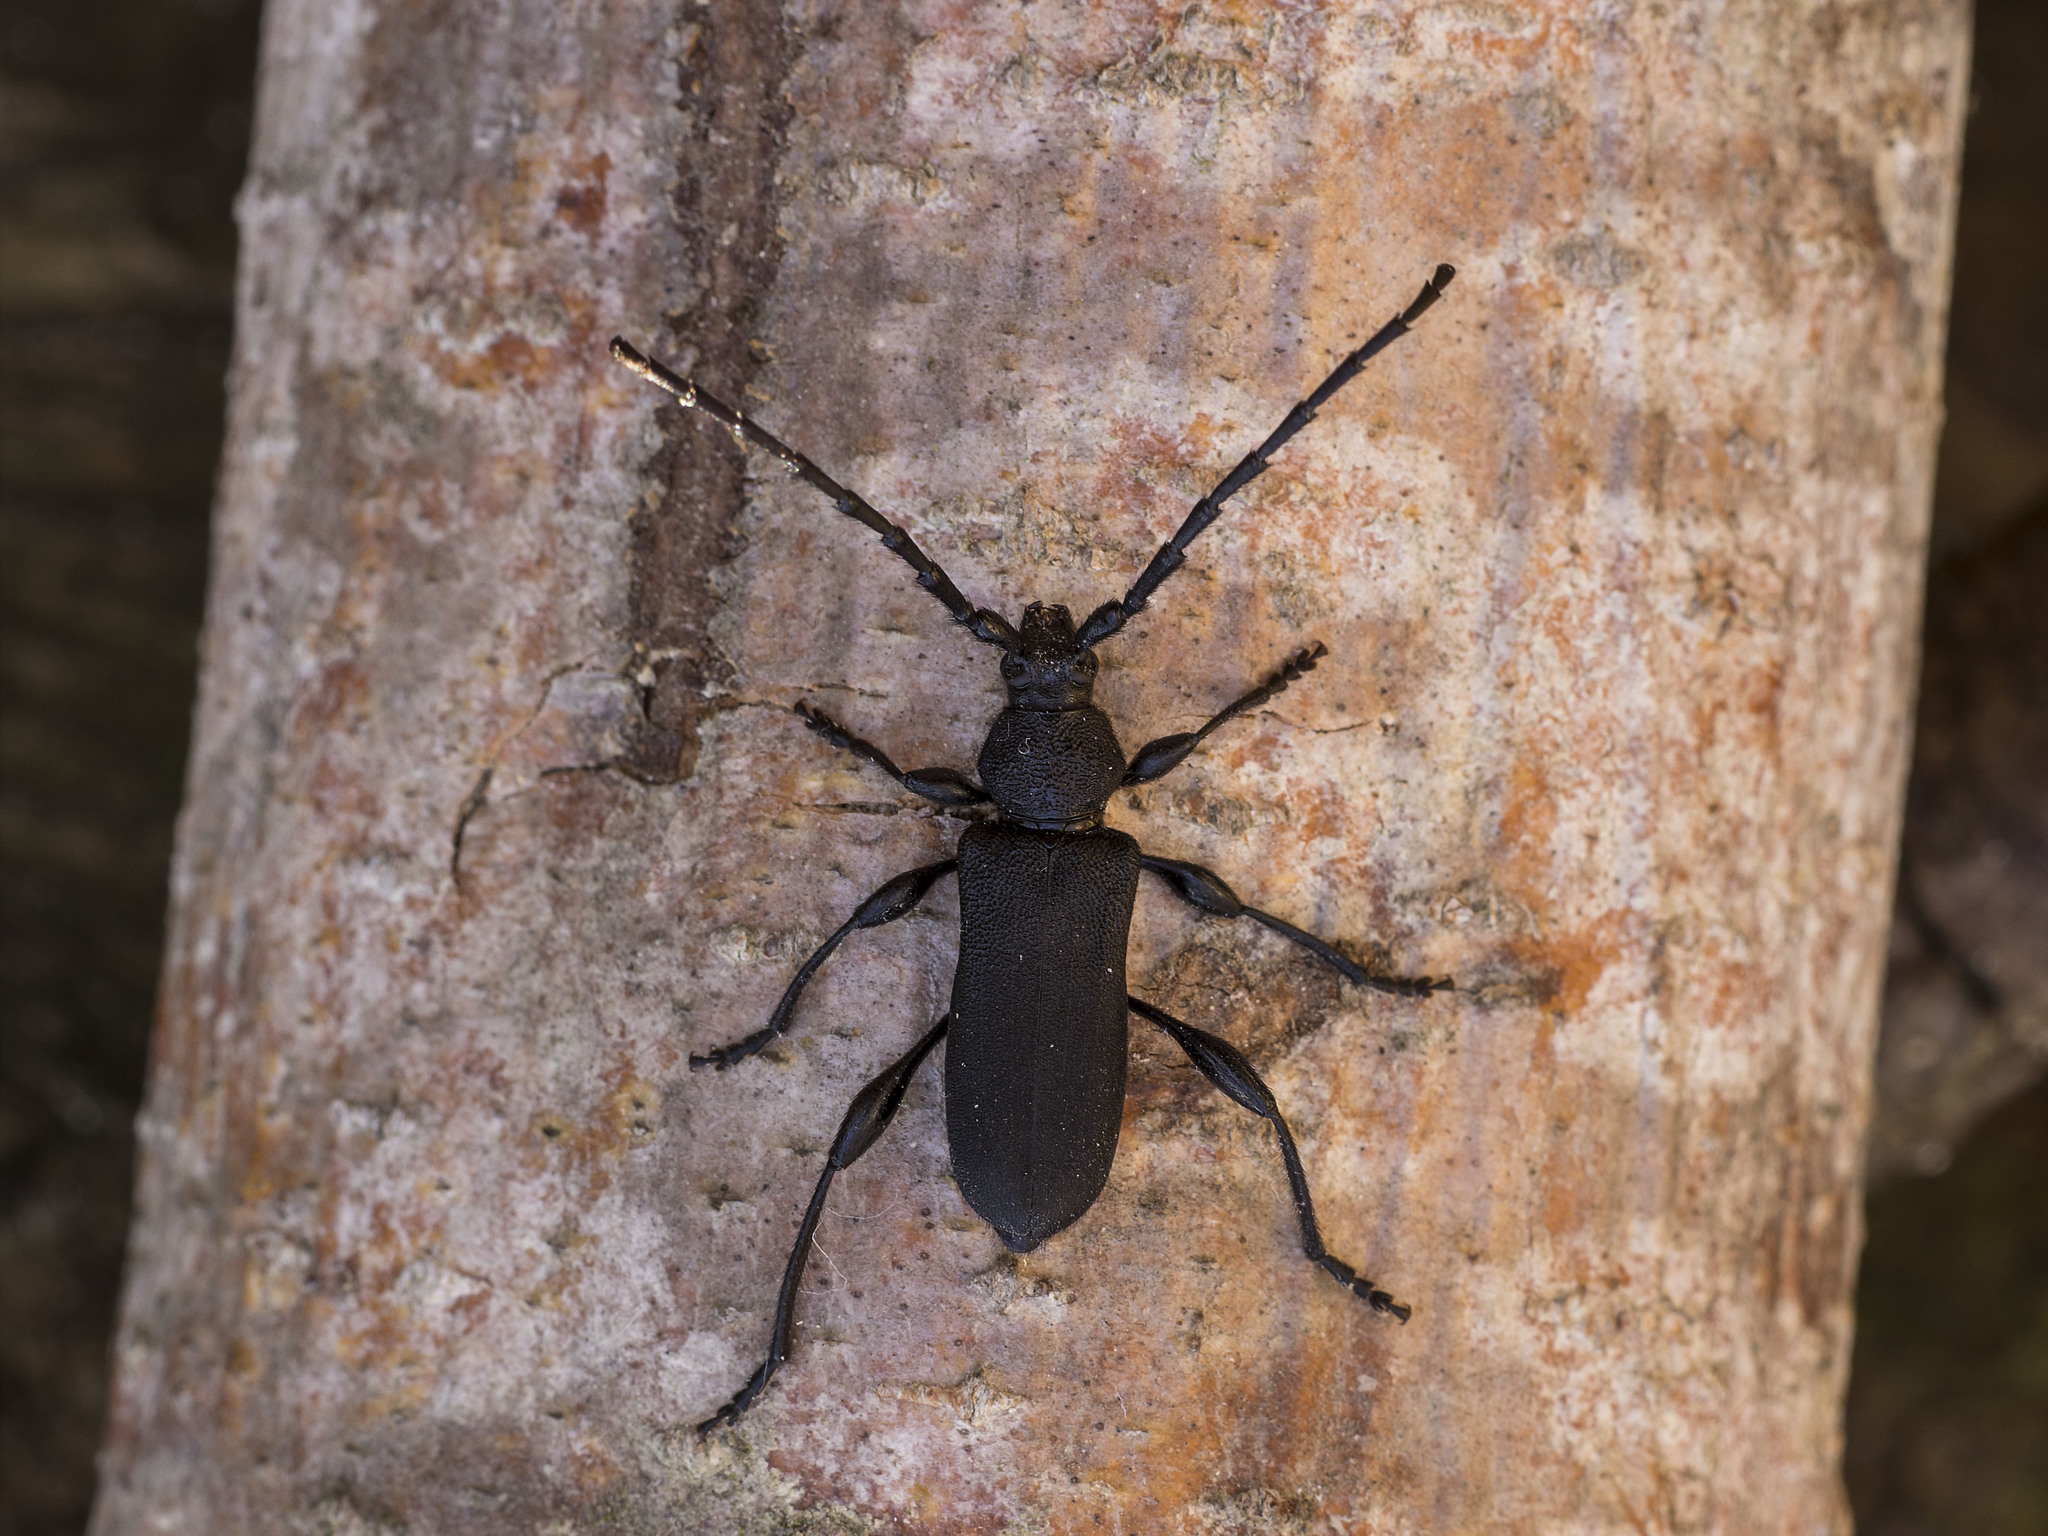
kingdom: Animalia
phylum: Arthropoda
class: Insecta
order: Coleoptera
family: Cerambycidae
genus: Ropalopus
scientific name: Ropalopus clavipes
